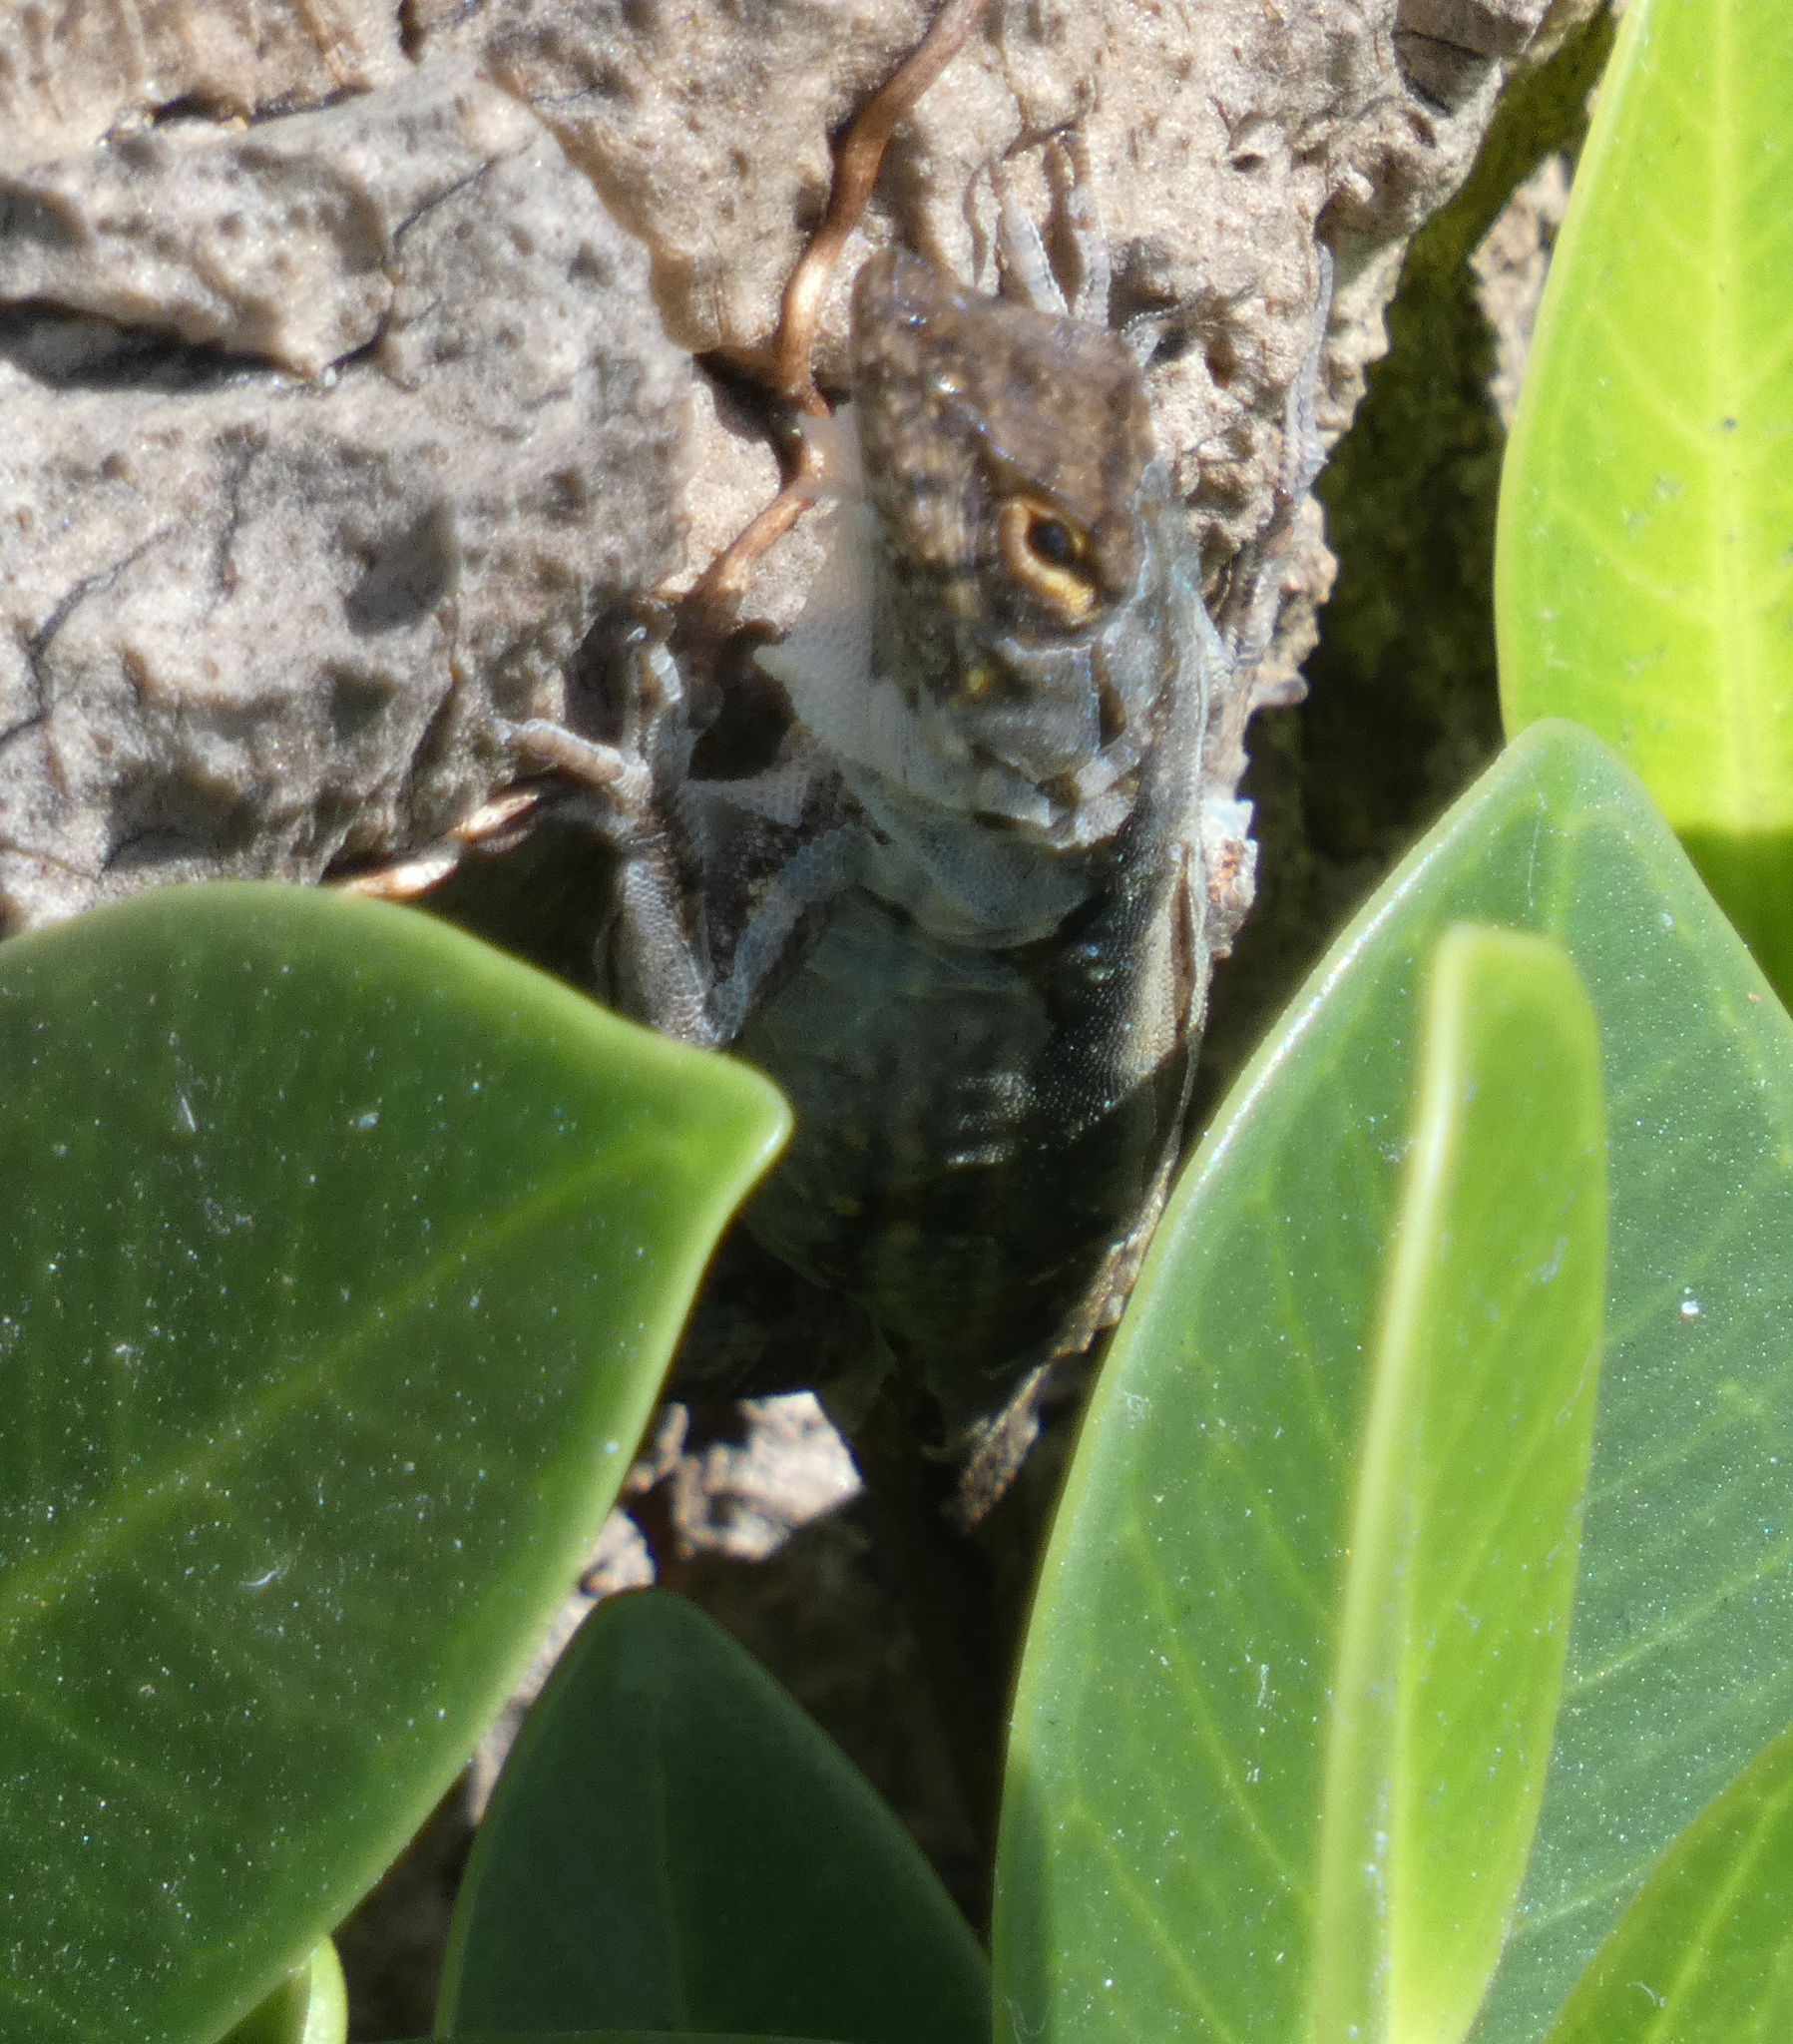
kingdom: Animalia
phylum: Chordata
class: Squamata
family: Dactyloidae
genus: Anolis
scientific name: Anolis sagrei
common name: Brown anole
